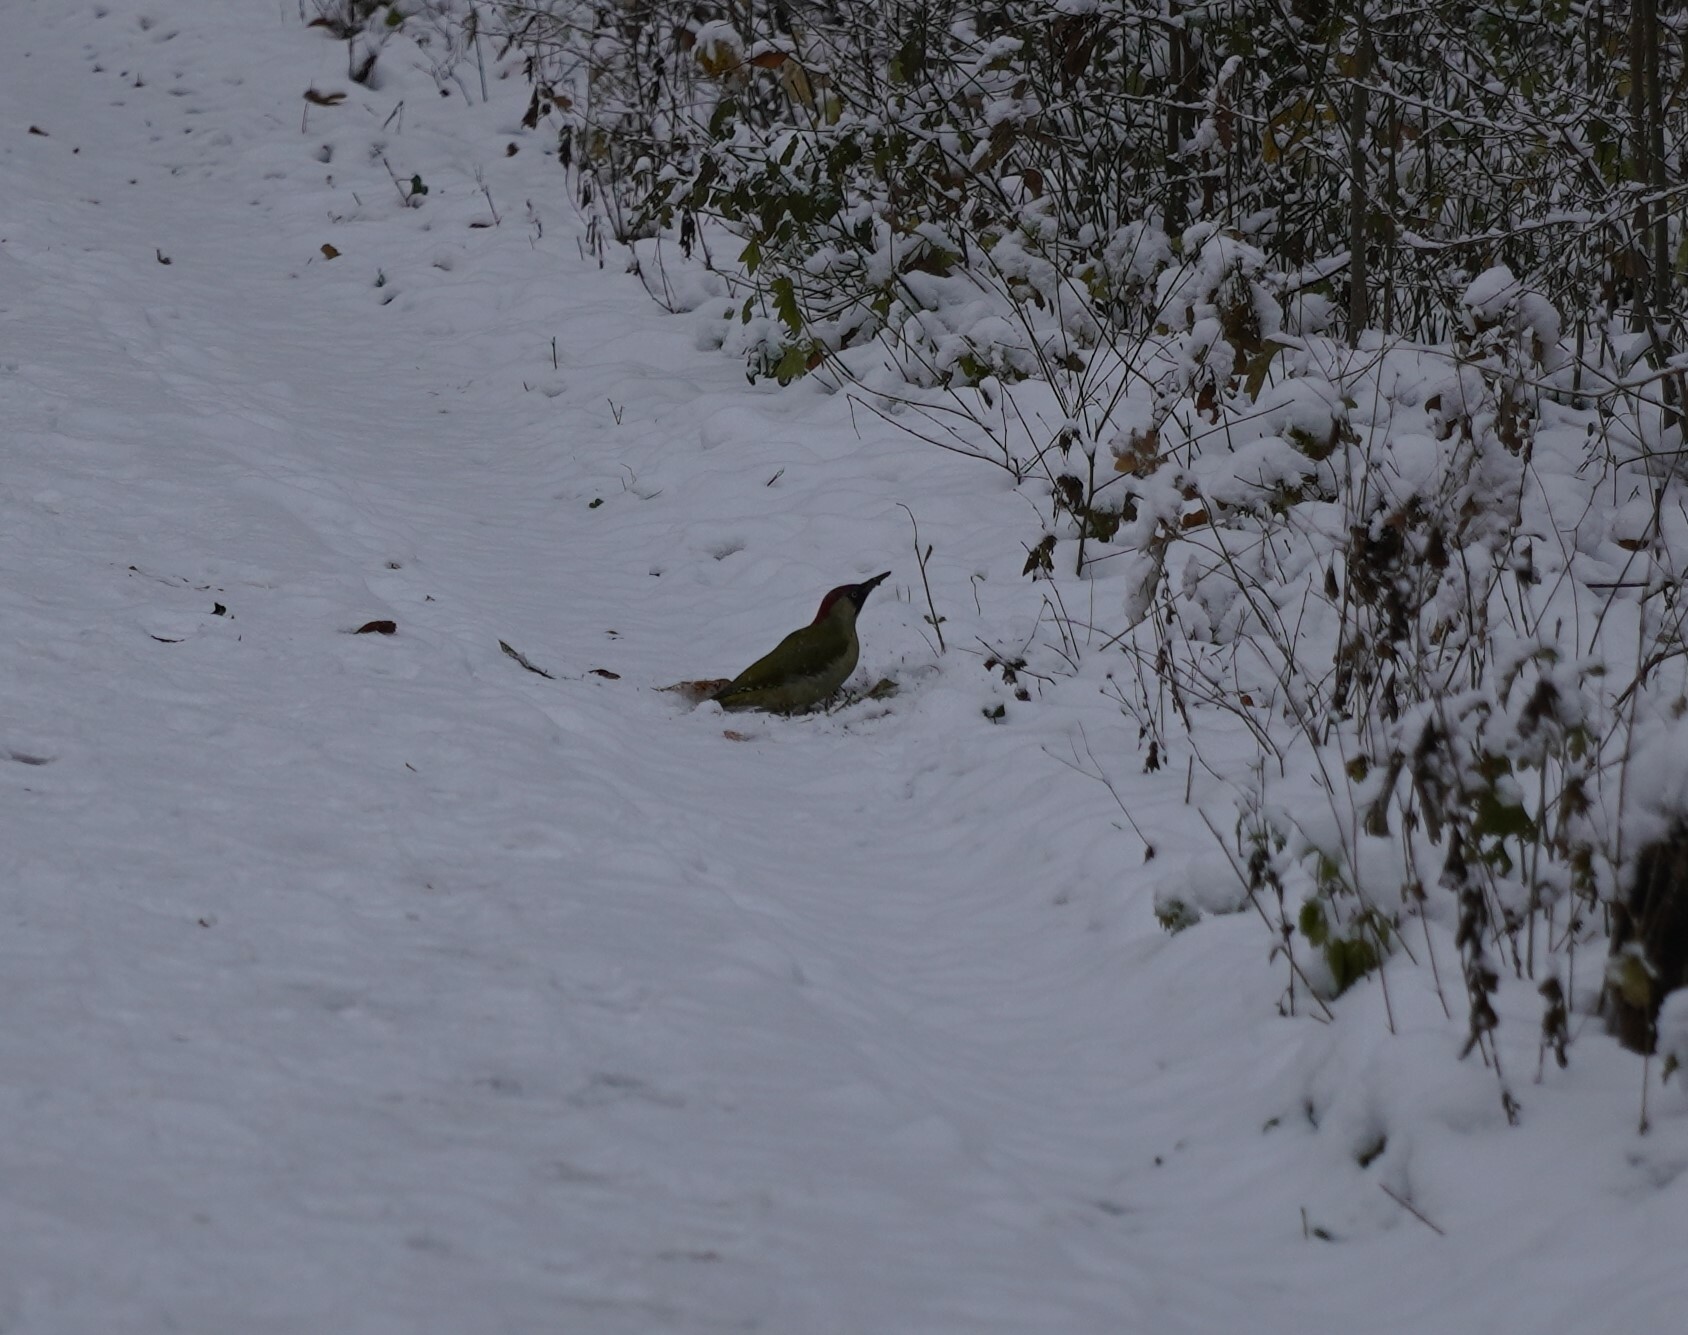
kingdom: Animalia
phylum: Chordata
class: Aves
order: Piciformes
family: Picidae
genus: Picus
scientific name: Picus viridis
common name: European green woodpecker
